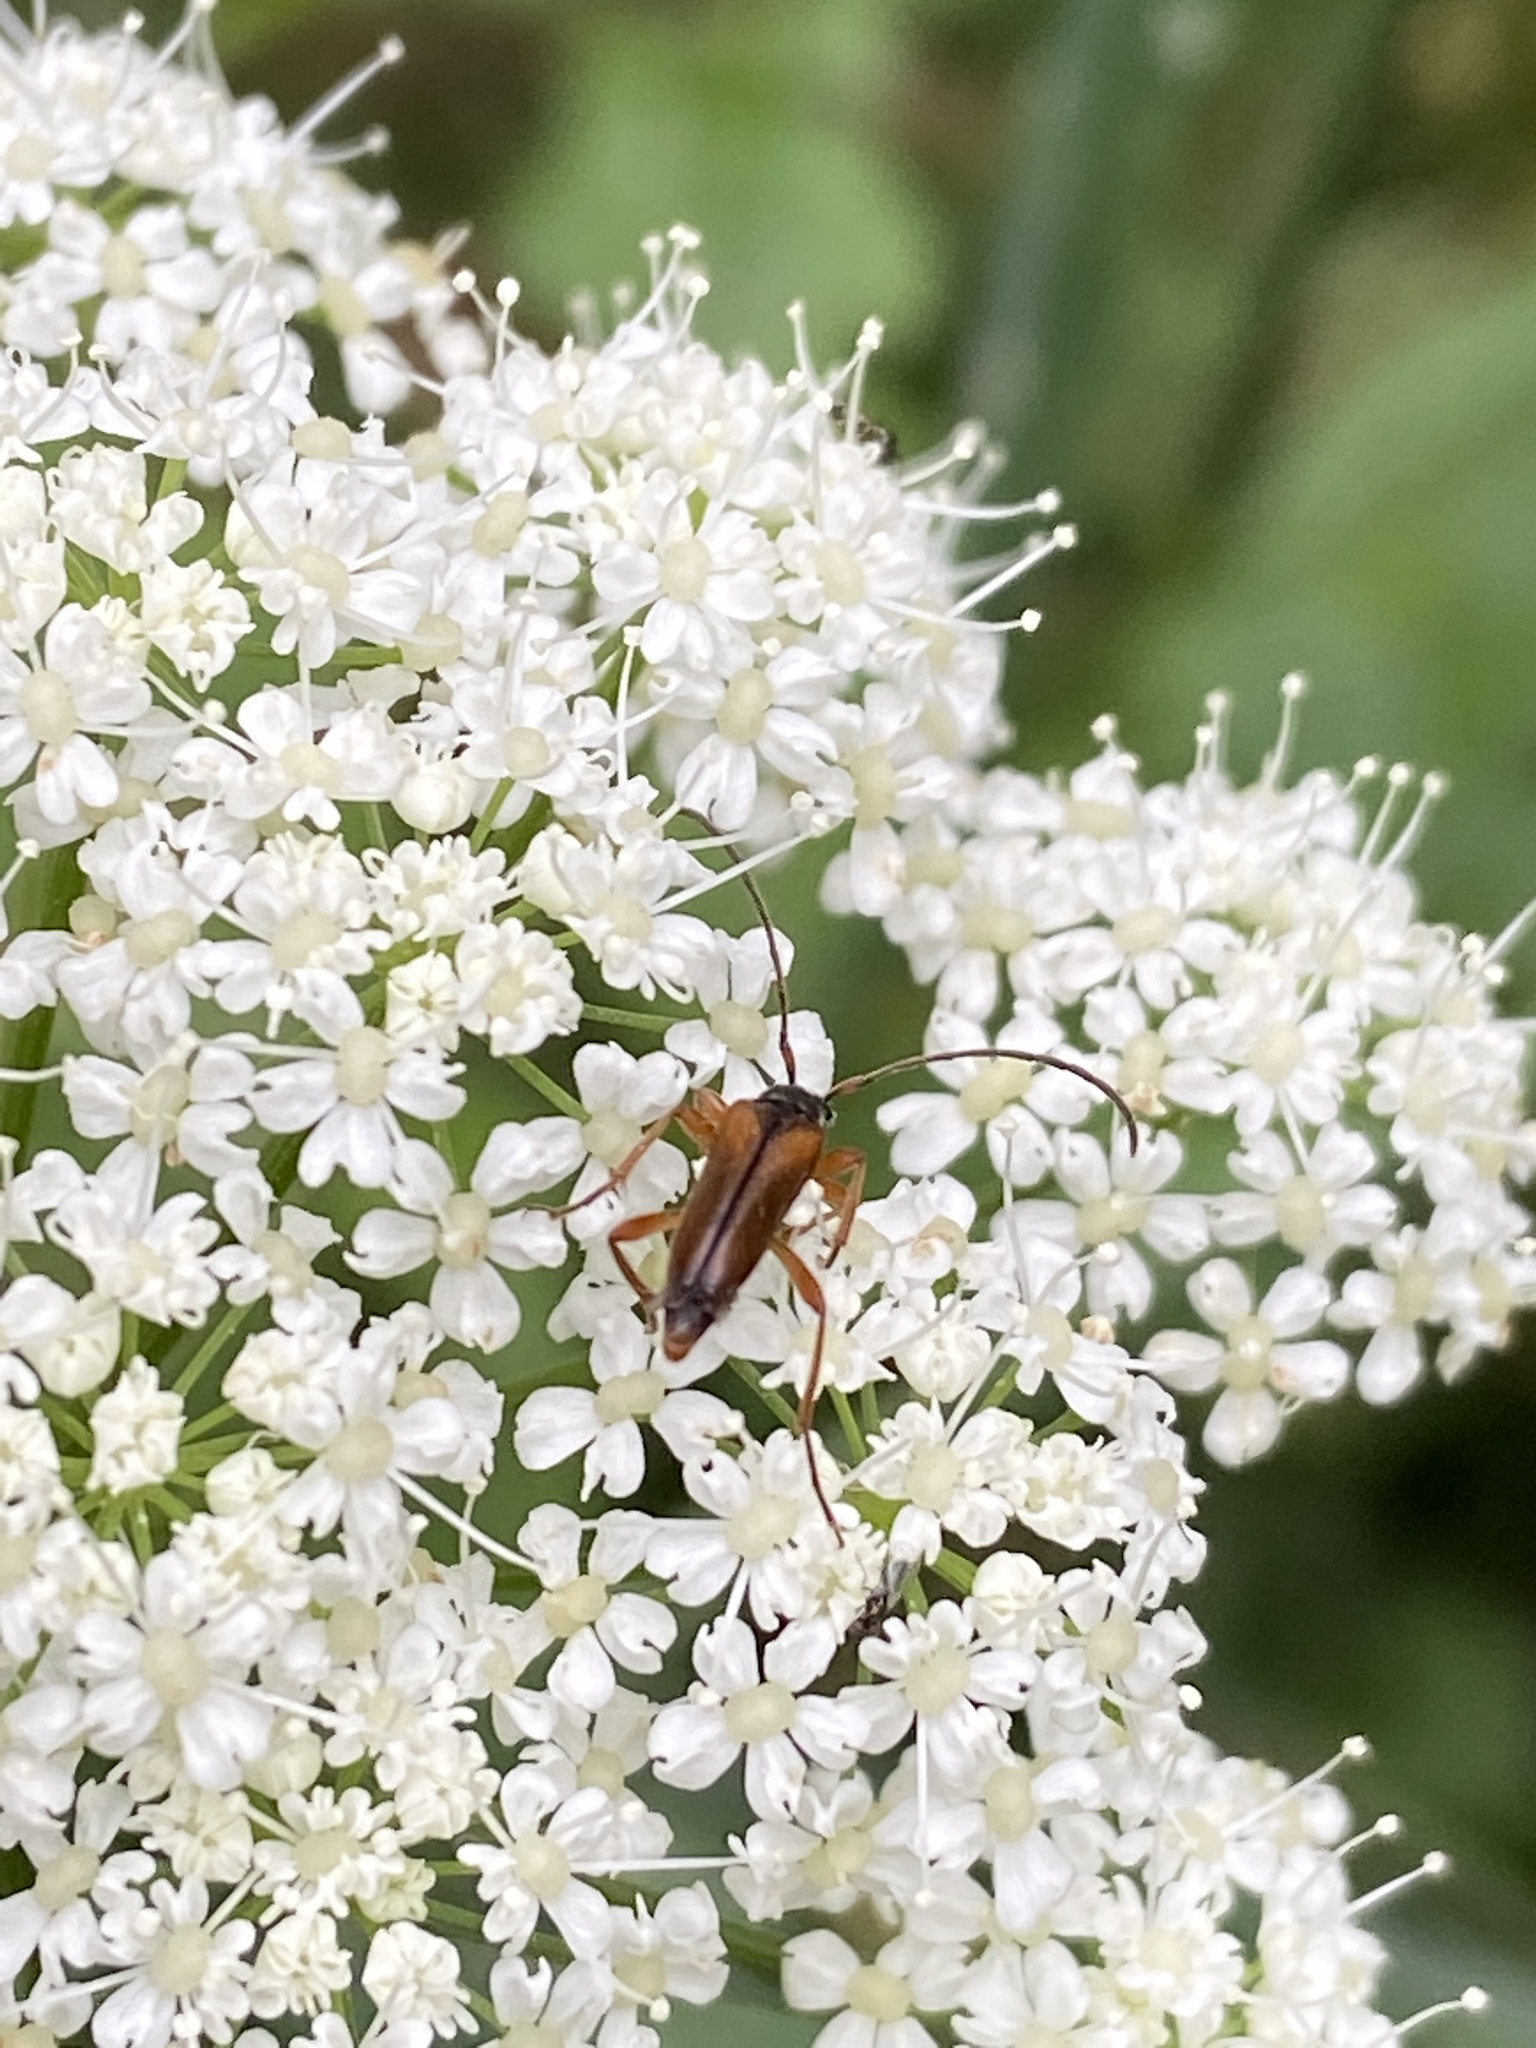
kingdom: Animalia
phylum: Arthropoda
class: Insecta
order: Coleoptera
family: Cerambycidae
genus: Alosterna
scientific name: Alosterna tabacicolor
